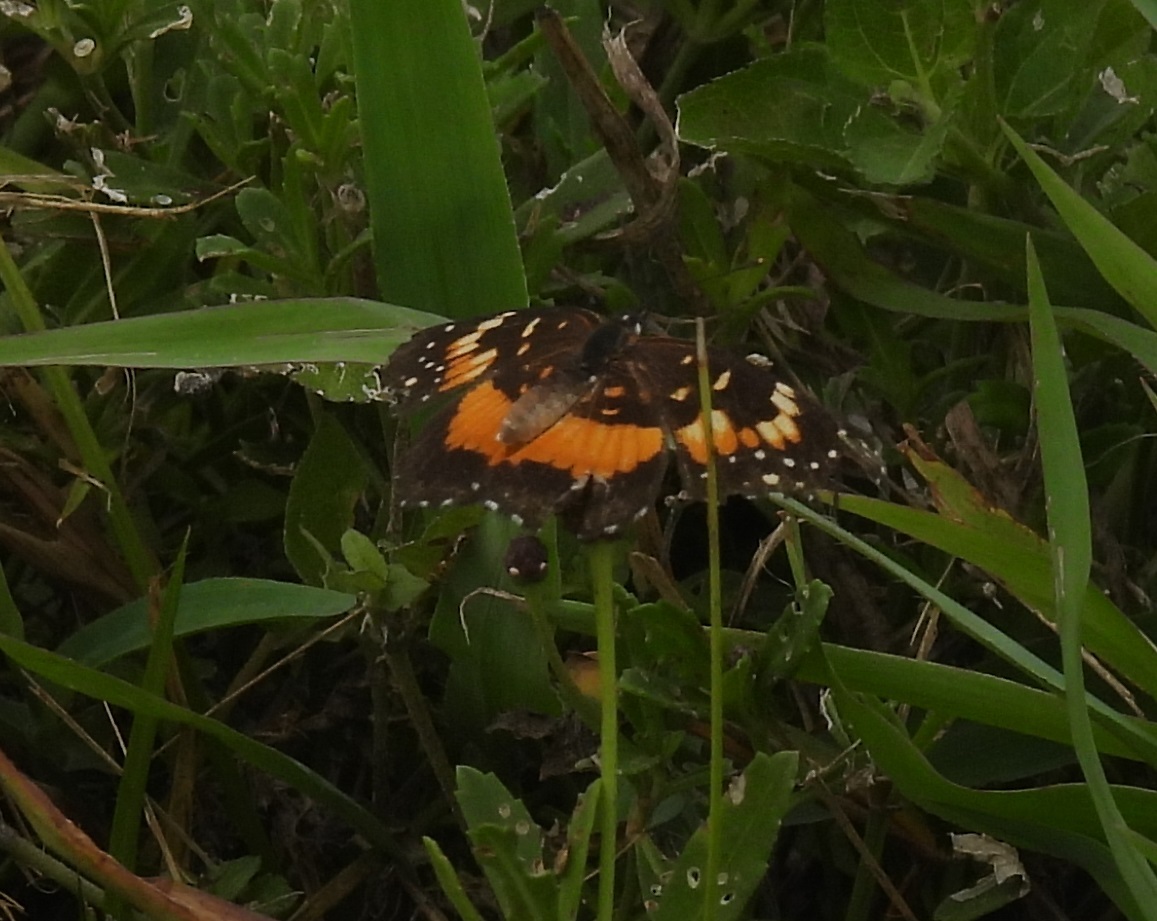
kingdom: Animalia
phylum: Arthropoda
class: Insecta
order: Lepidoptera
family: Nymphalidae
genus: Chlosyne
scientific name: Chlosyne lacinia
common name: Bordered patch
